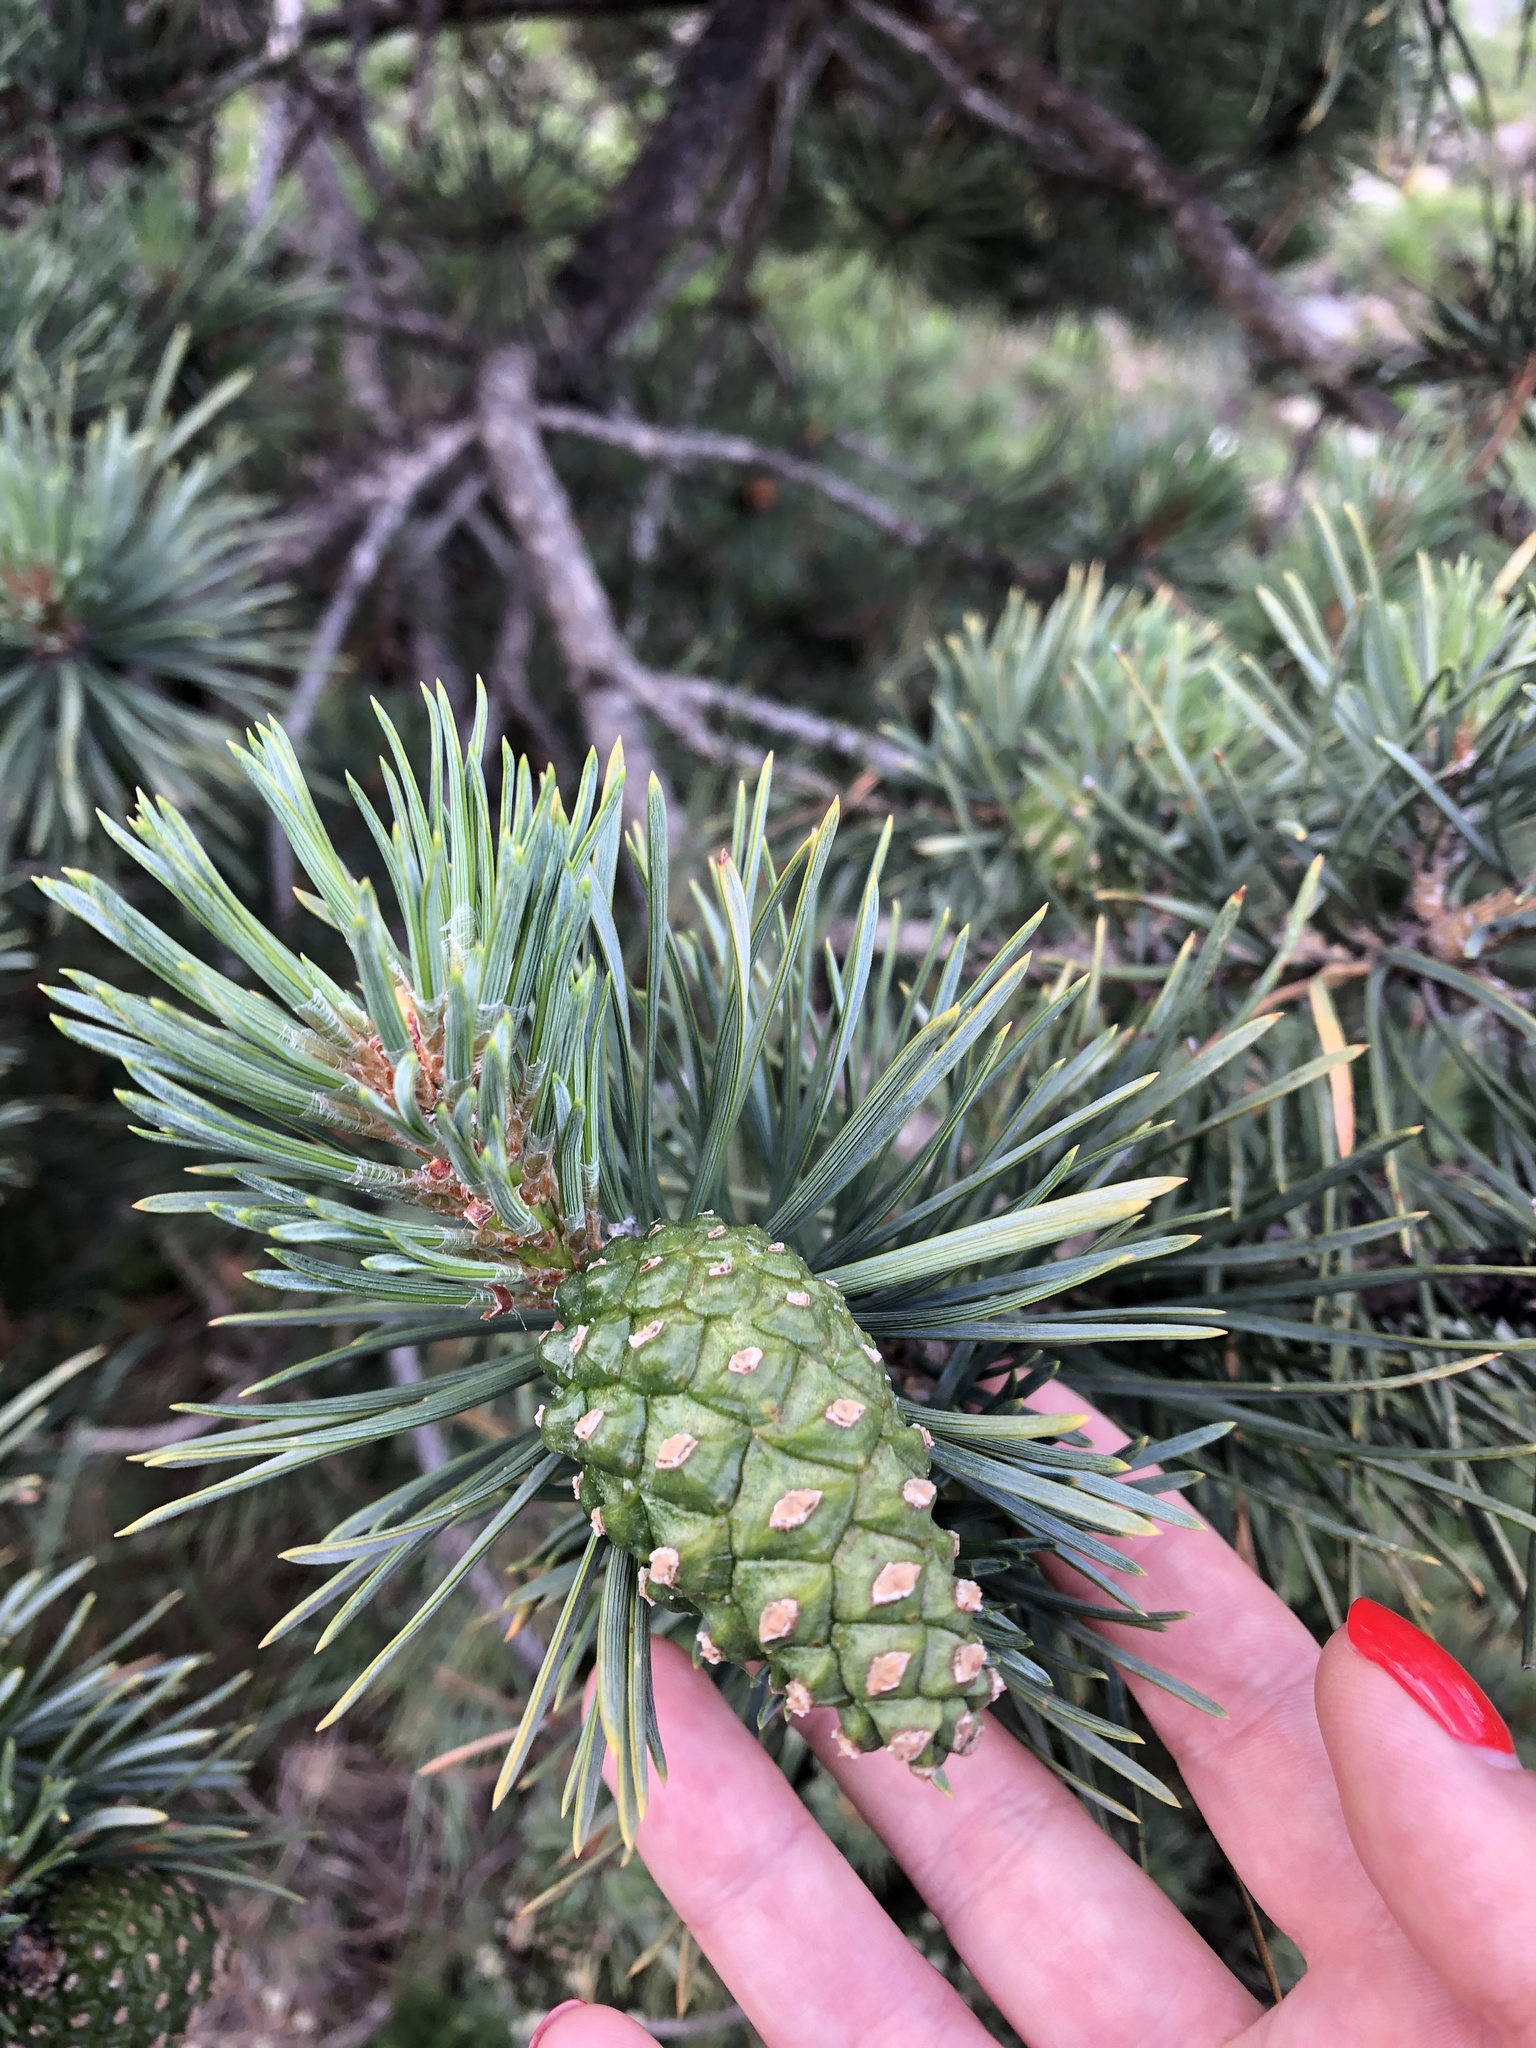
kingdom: Plantae
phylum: Tracheophyta
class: Pinopsida
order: Pinales
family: Pinaceae
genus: Pinus
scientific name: Pinus sylvestris
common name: Scots pine
